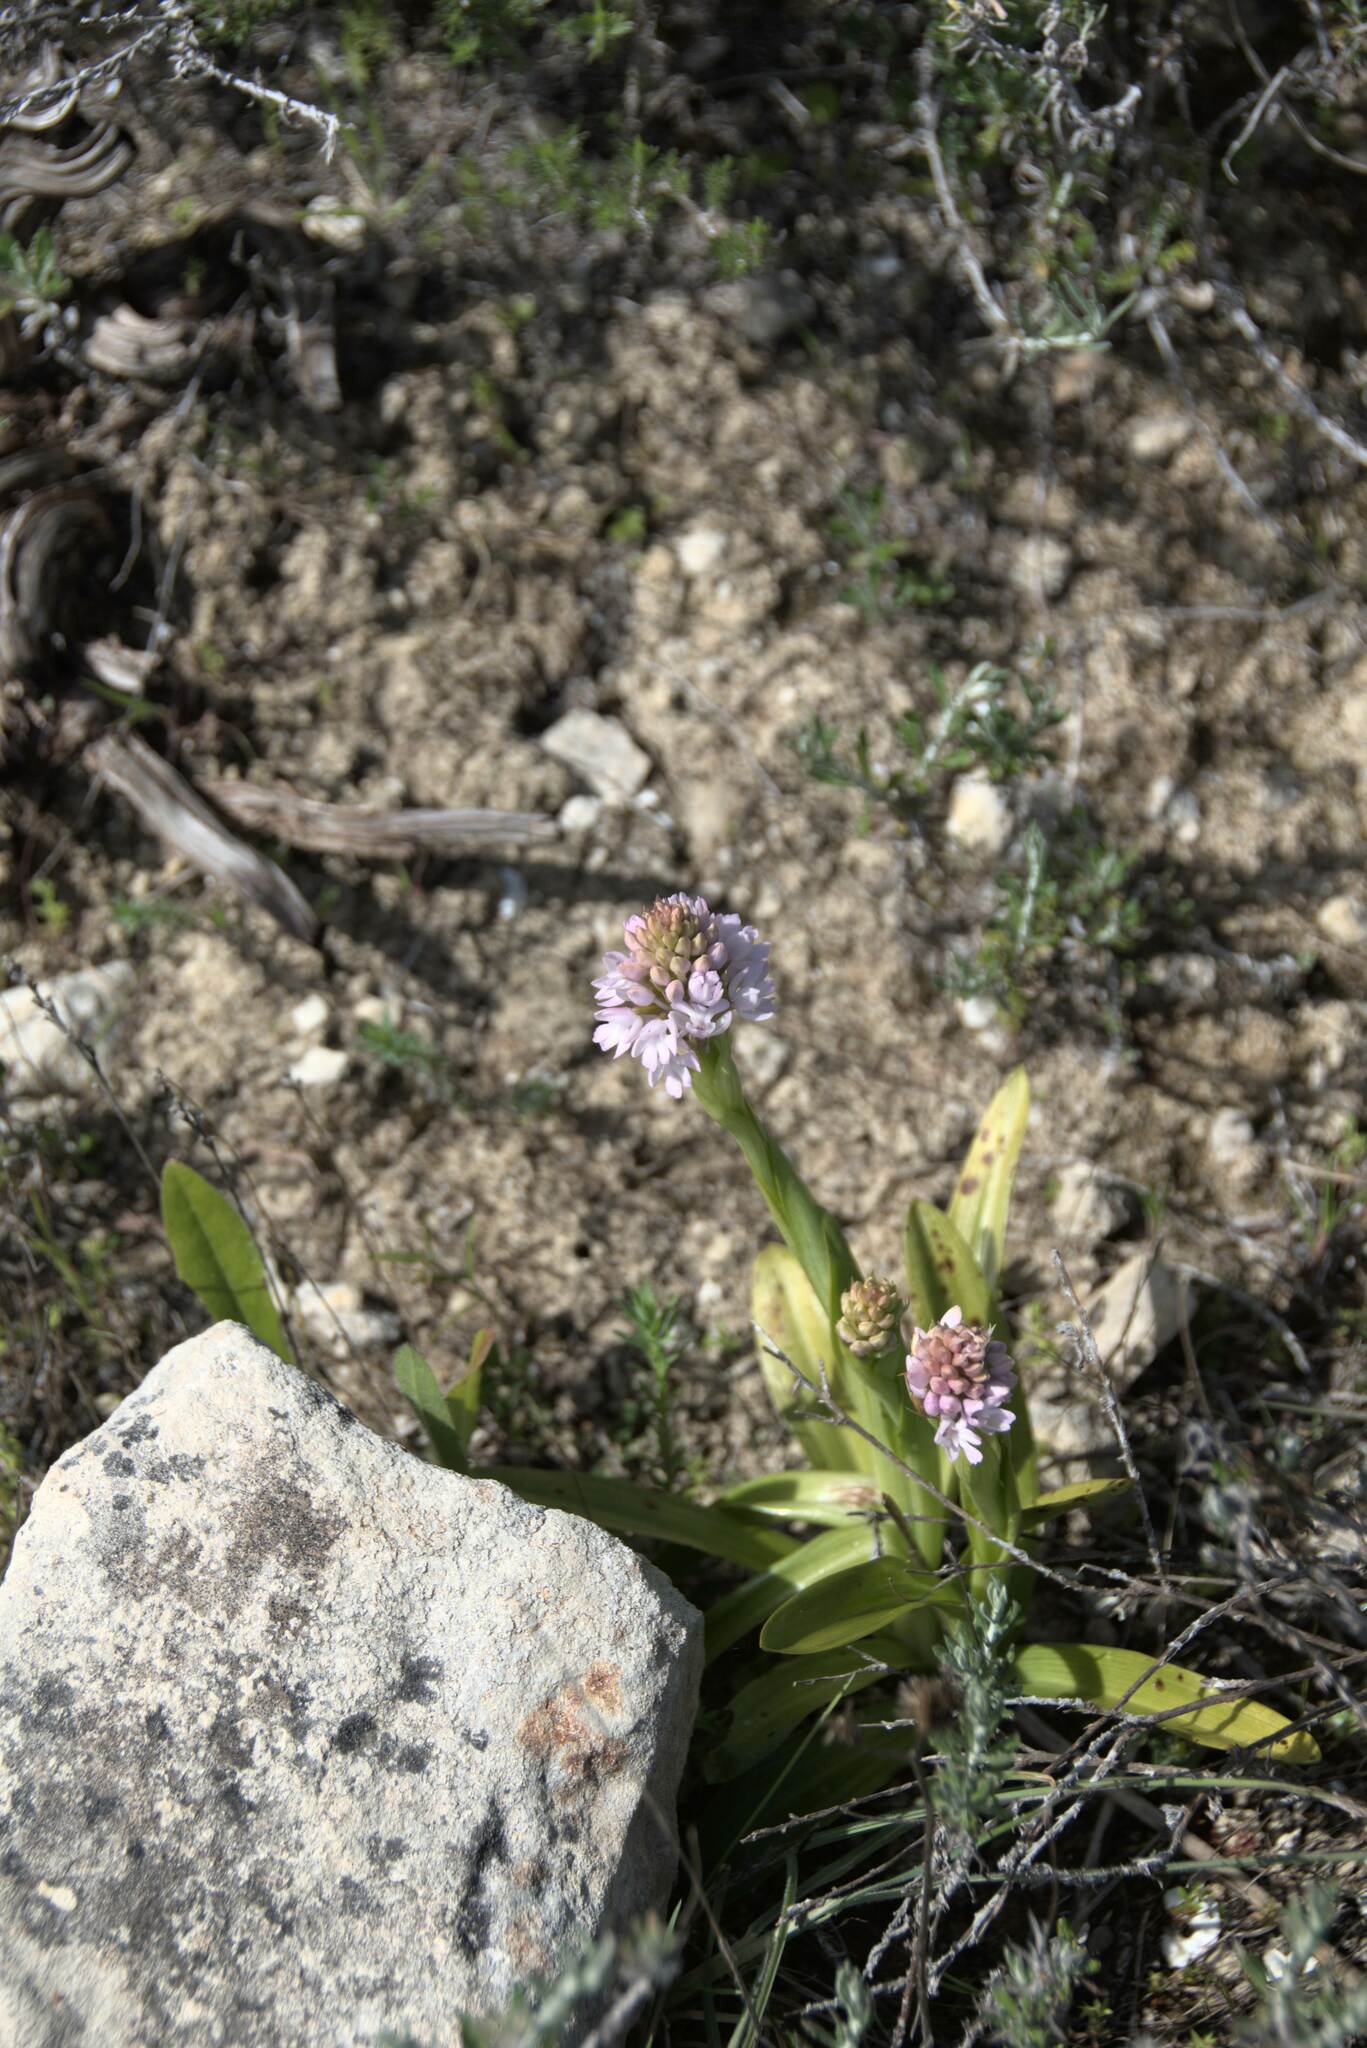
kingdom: Plantae
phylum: Tracheophyta
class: Liliopsida
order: Asparagales
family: Orchidaceae
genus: Anacamptis
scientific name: Anacamptis pyramidalis
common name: Pyramidal orchid
